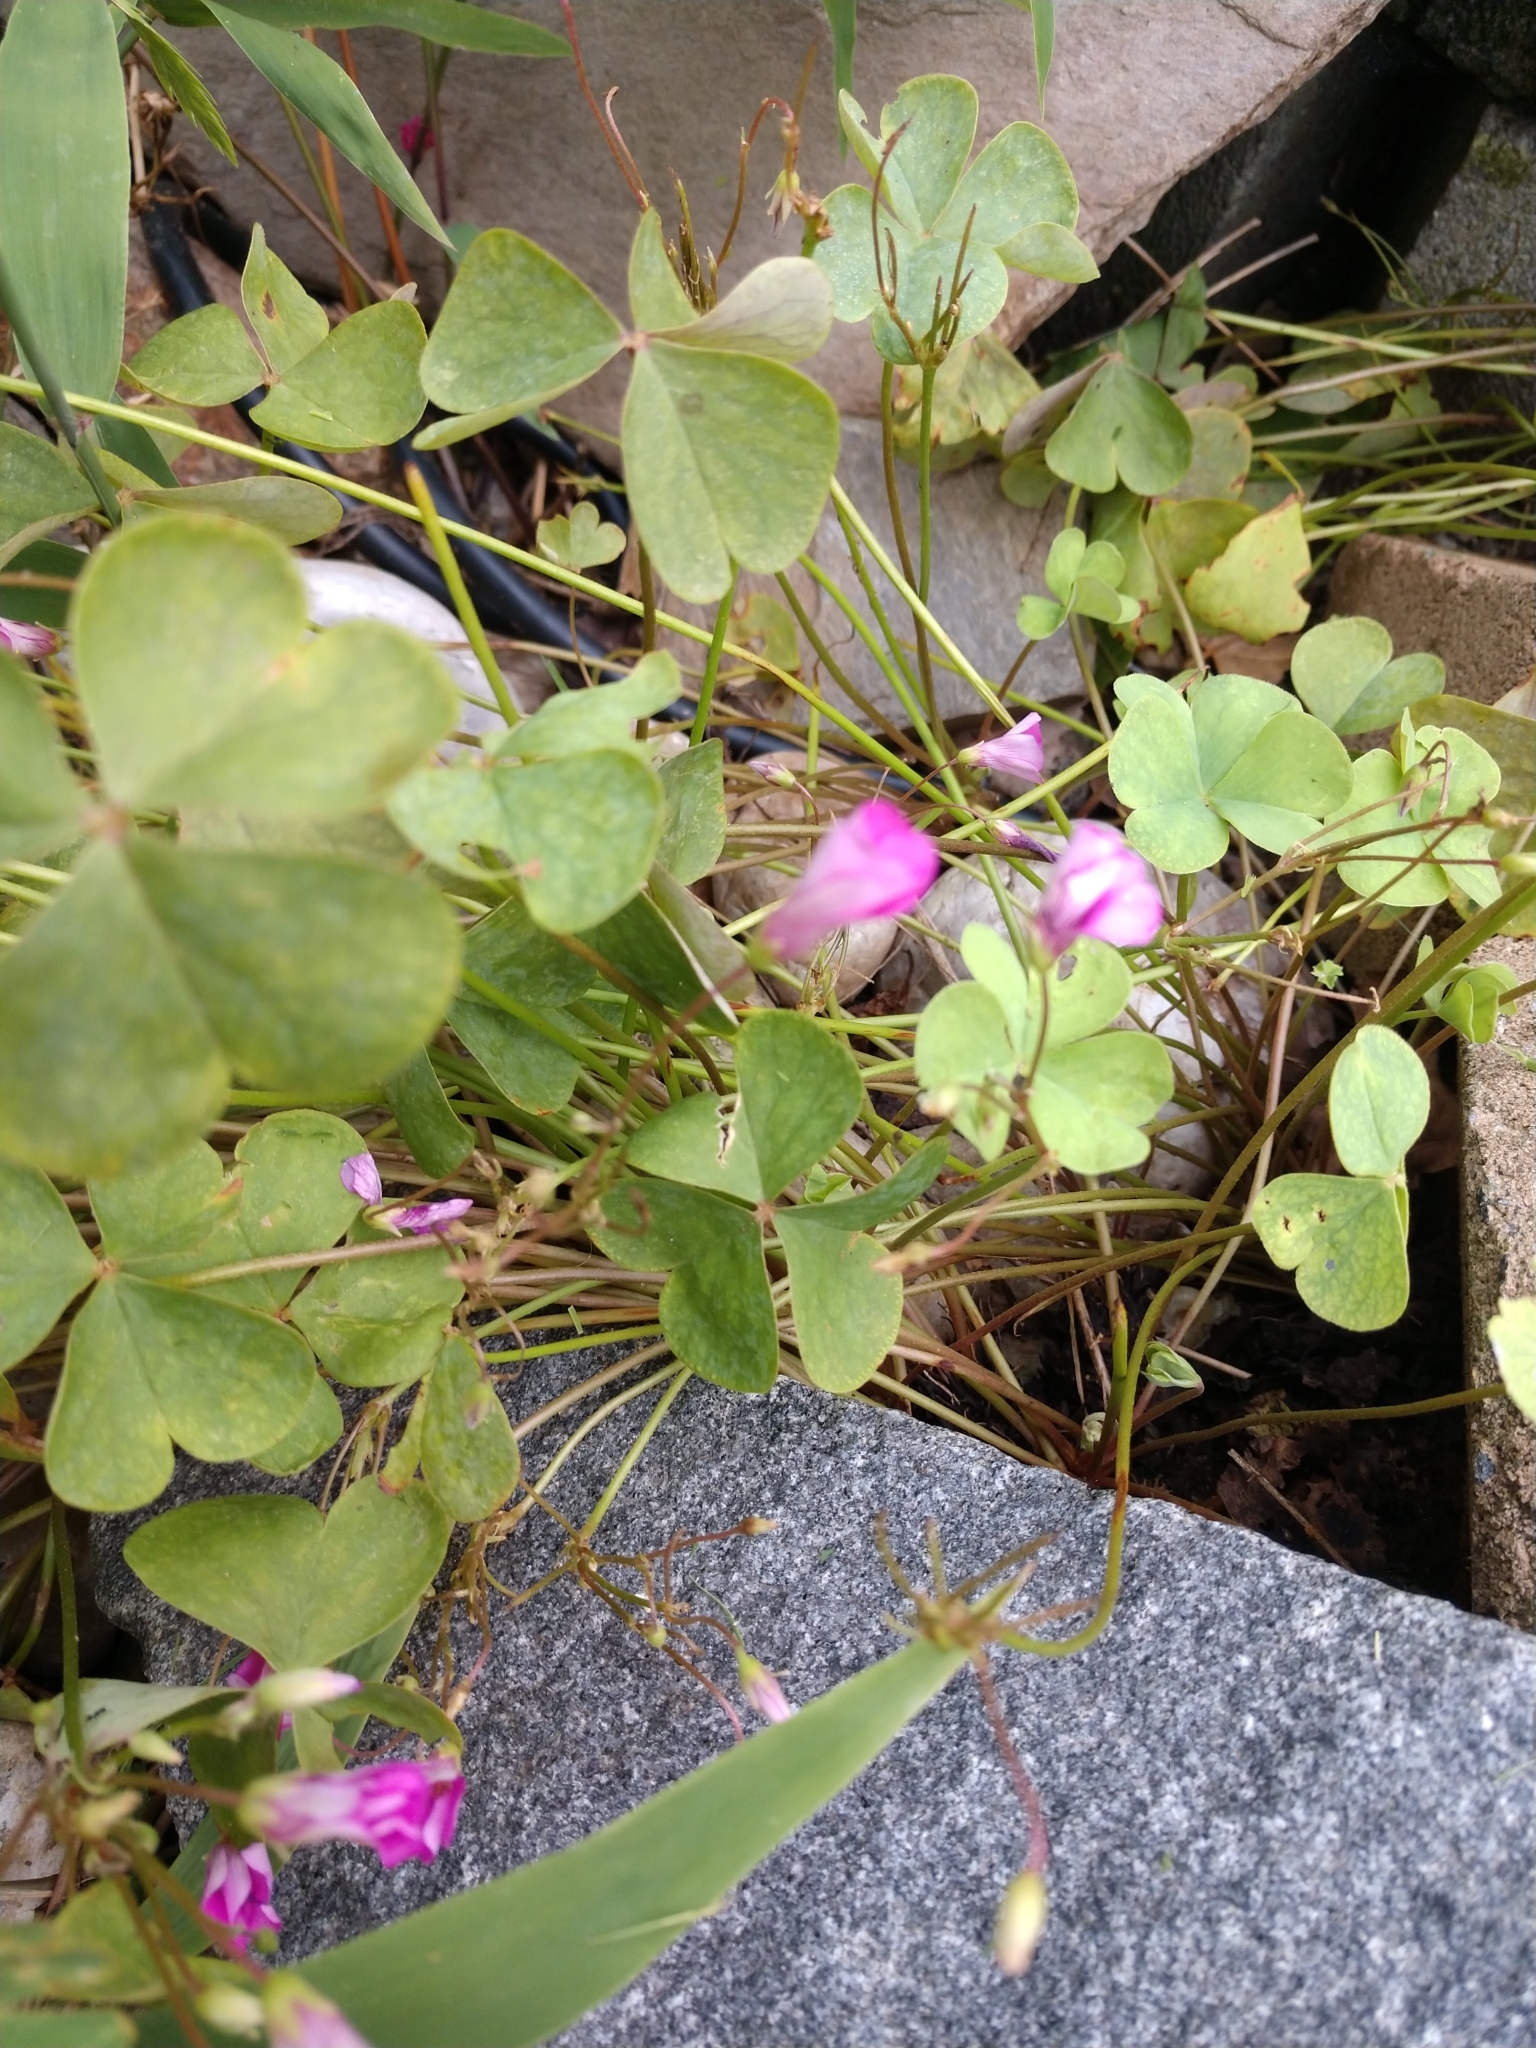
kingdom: Plantae
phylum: Tracheophyta
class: Magnoliopsida
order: Oxalidales
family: Oxalidaceae
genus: Oxalis
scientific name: Oxalis articulata
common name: Pink-sorrel
